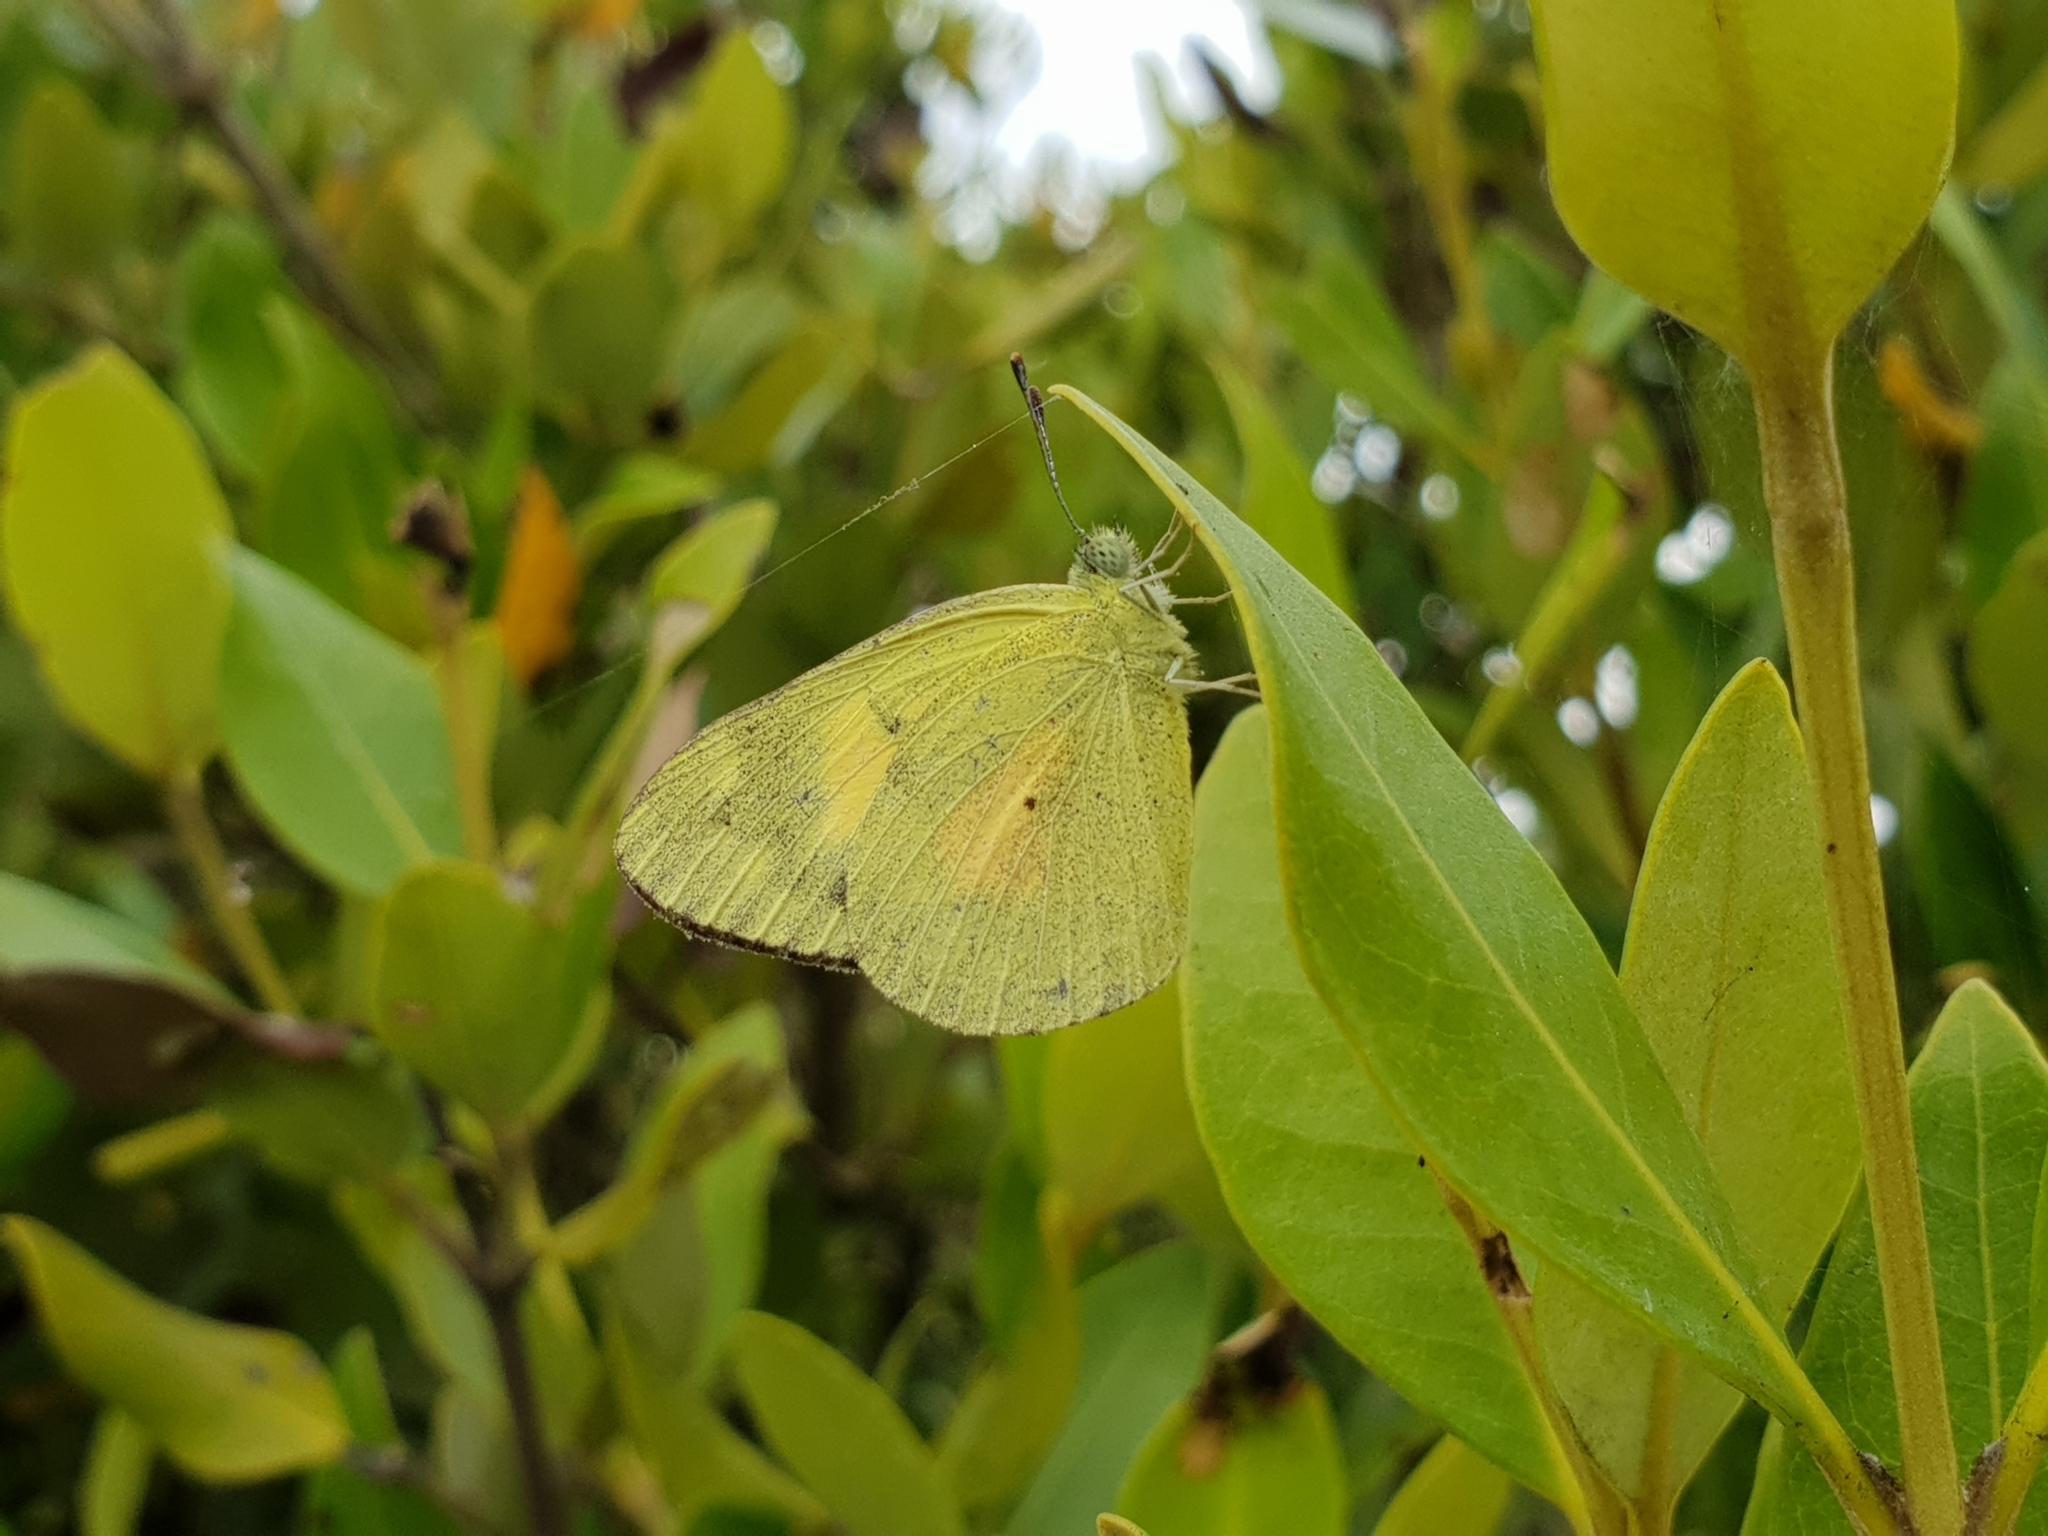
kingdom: Animalia
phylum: Arthropoda
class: Insecta
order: Lepidoptera
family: Pieridae
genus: Colotis
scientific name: Colotis amata
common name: Small salmon arab
